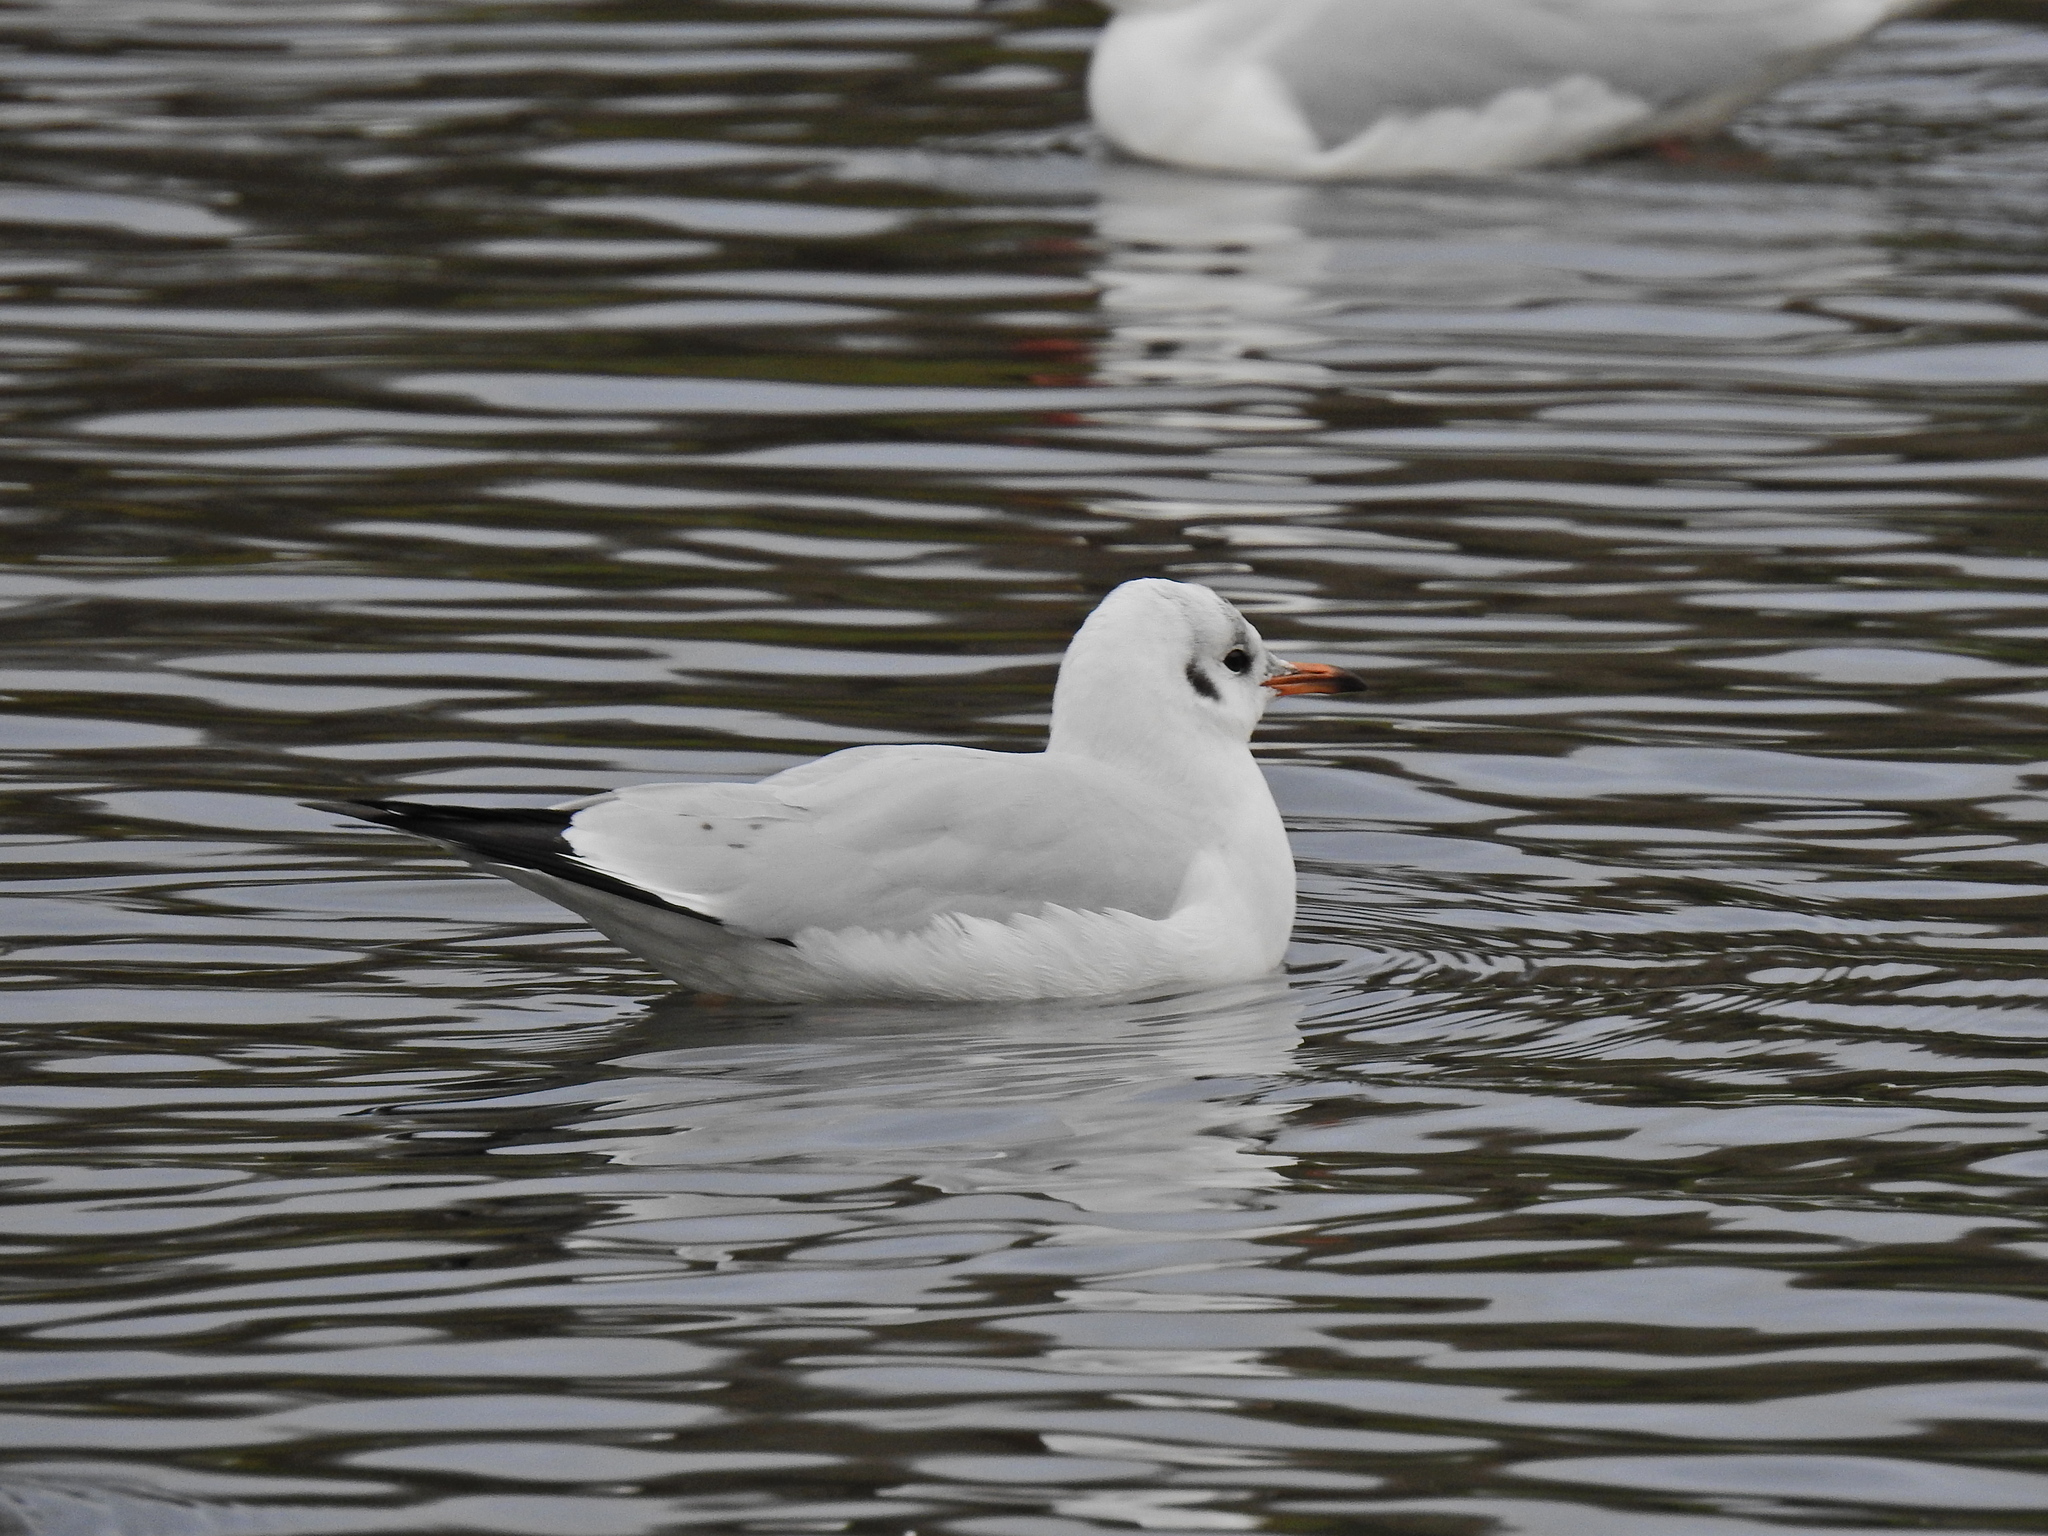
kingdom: Animalia
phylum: Chordata
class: Aves
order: Charadriiformes
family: Laridae
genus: Chroicocephalus
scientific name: Chroicocephalus ridibundus
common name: Black-headed gull
